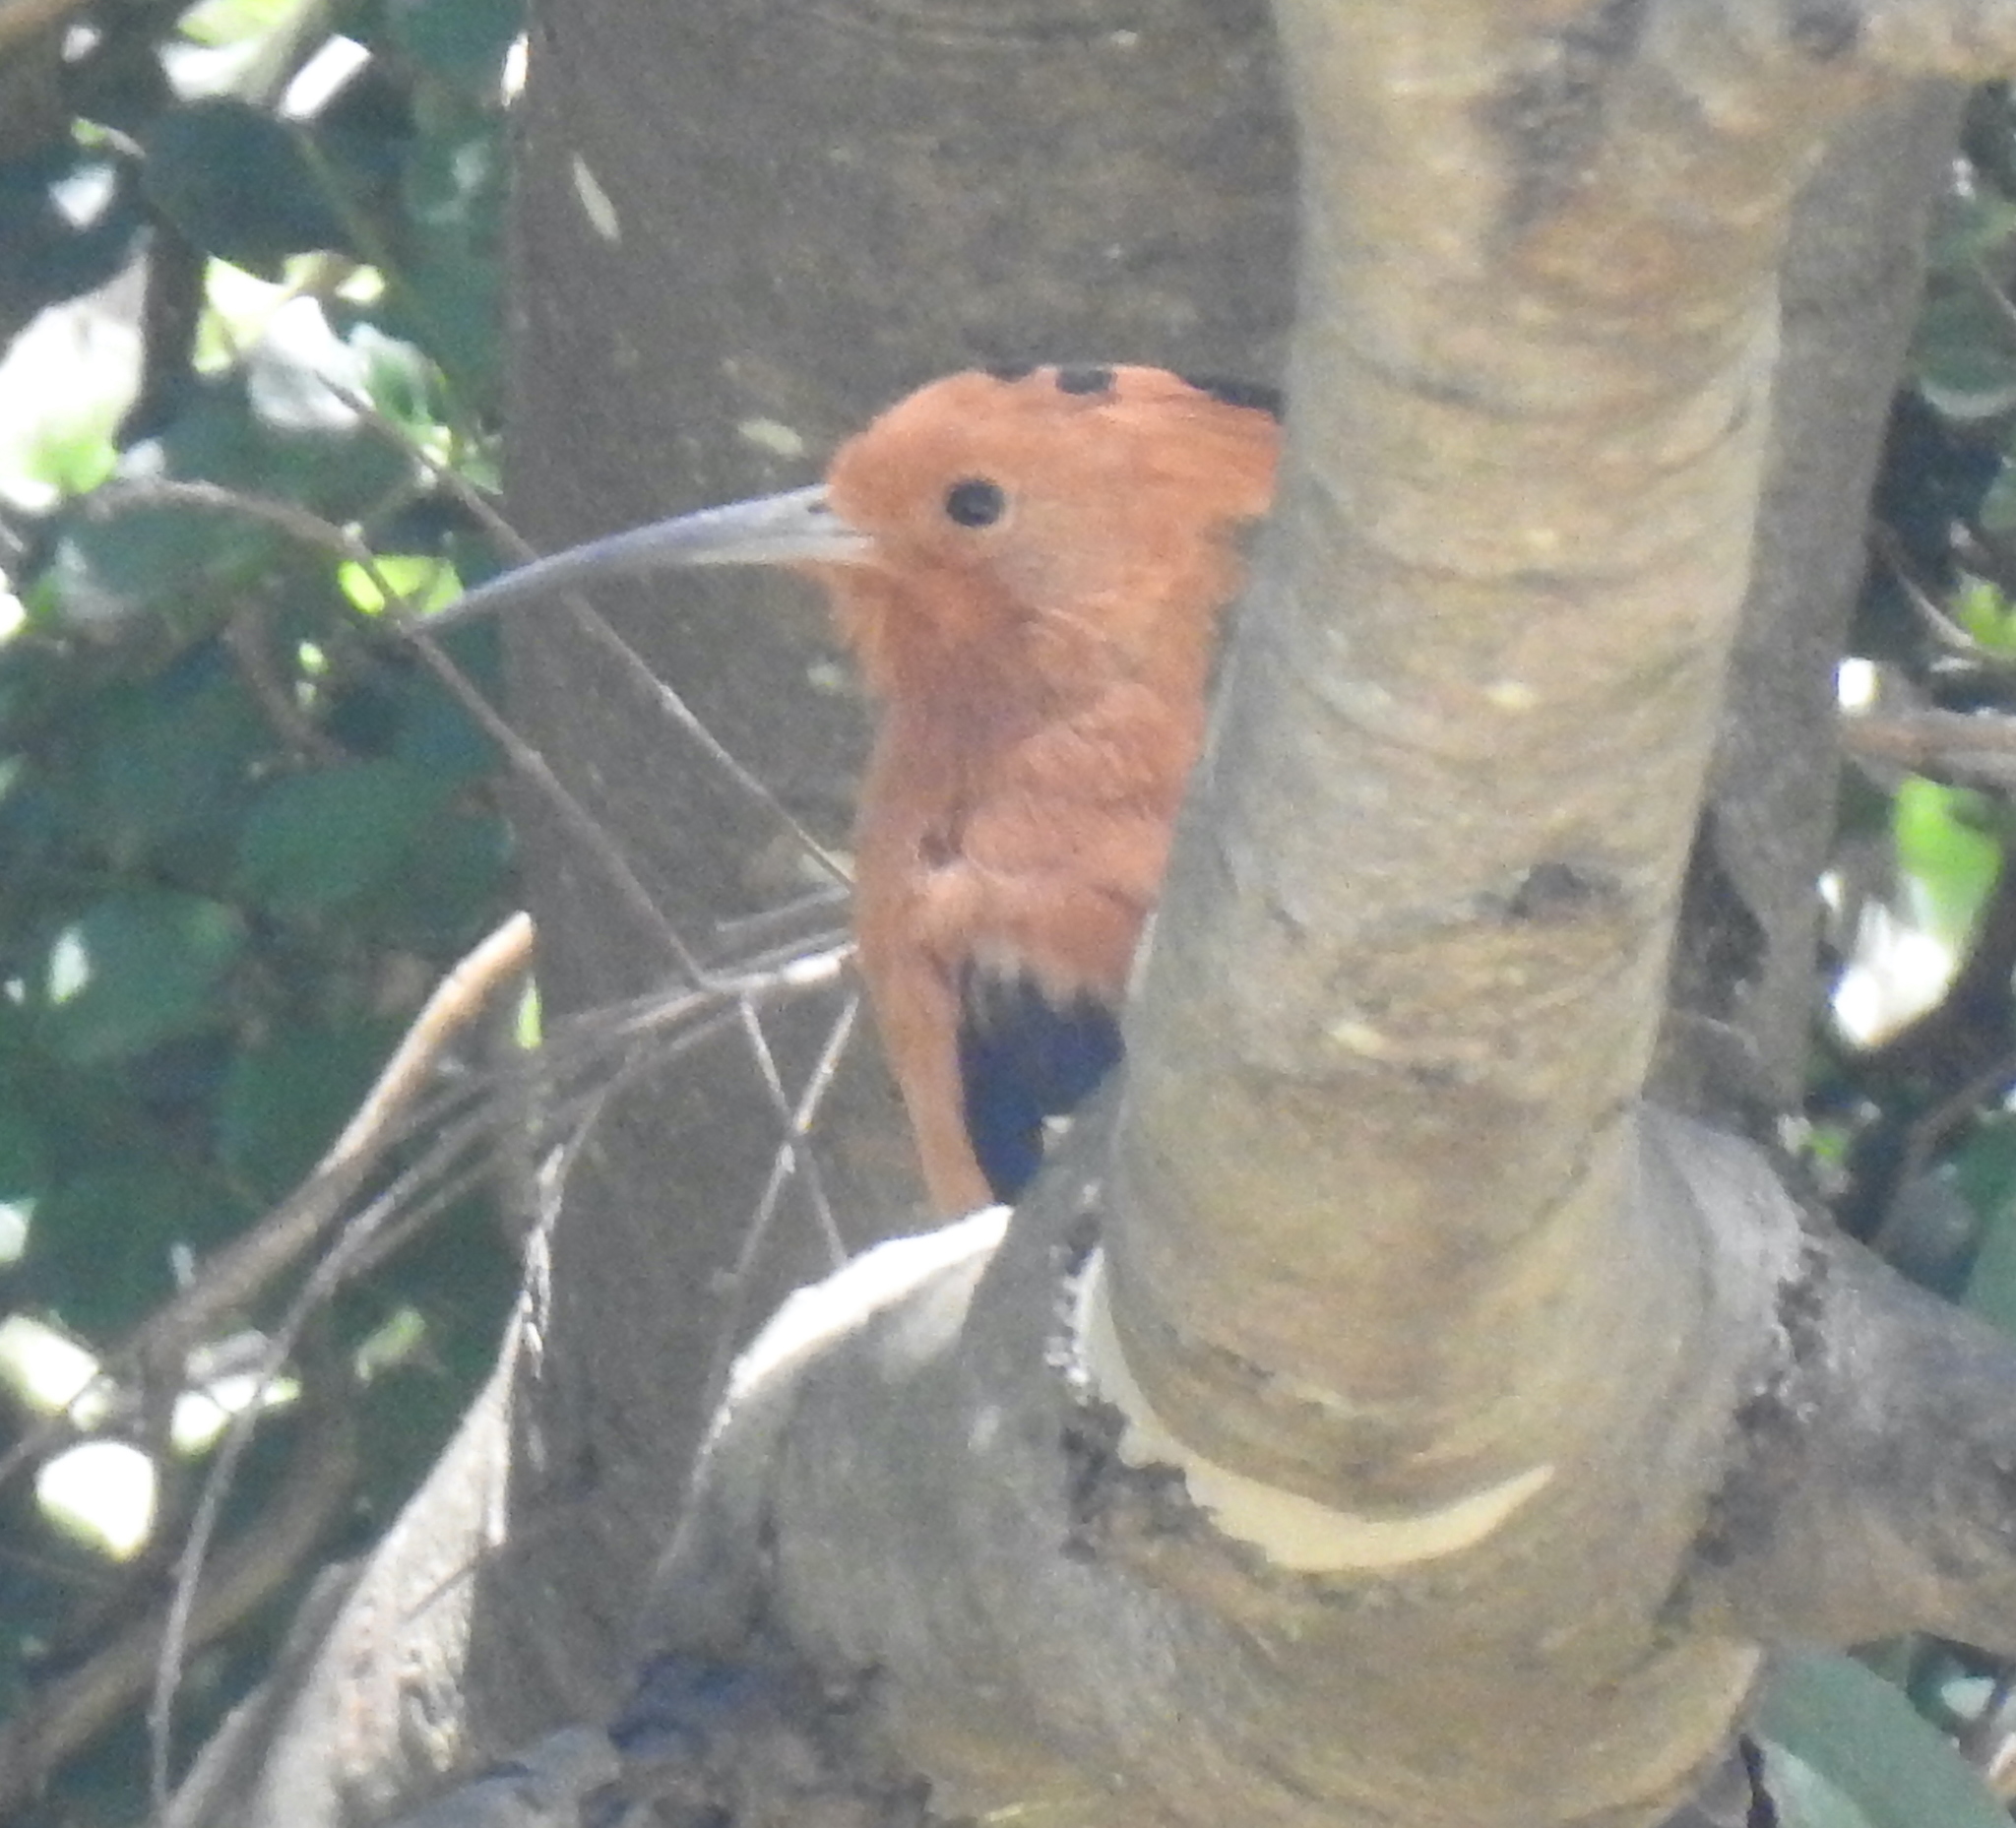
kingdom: Animalia
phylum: Chordata
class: Aves
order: Bucerotiformes
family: Upupidae
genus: Upupa
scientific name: Upupa africana
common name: African hoopoe
